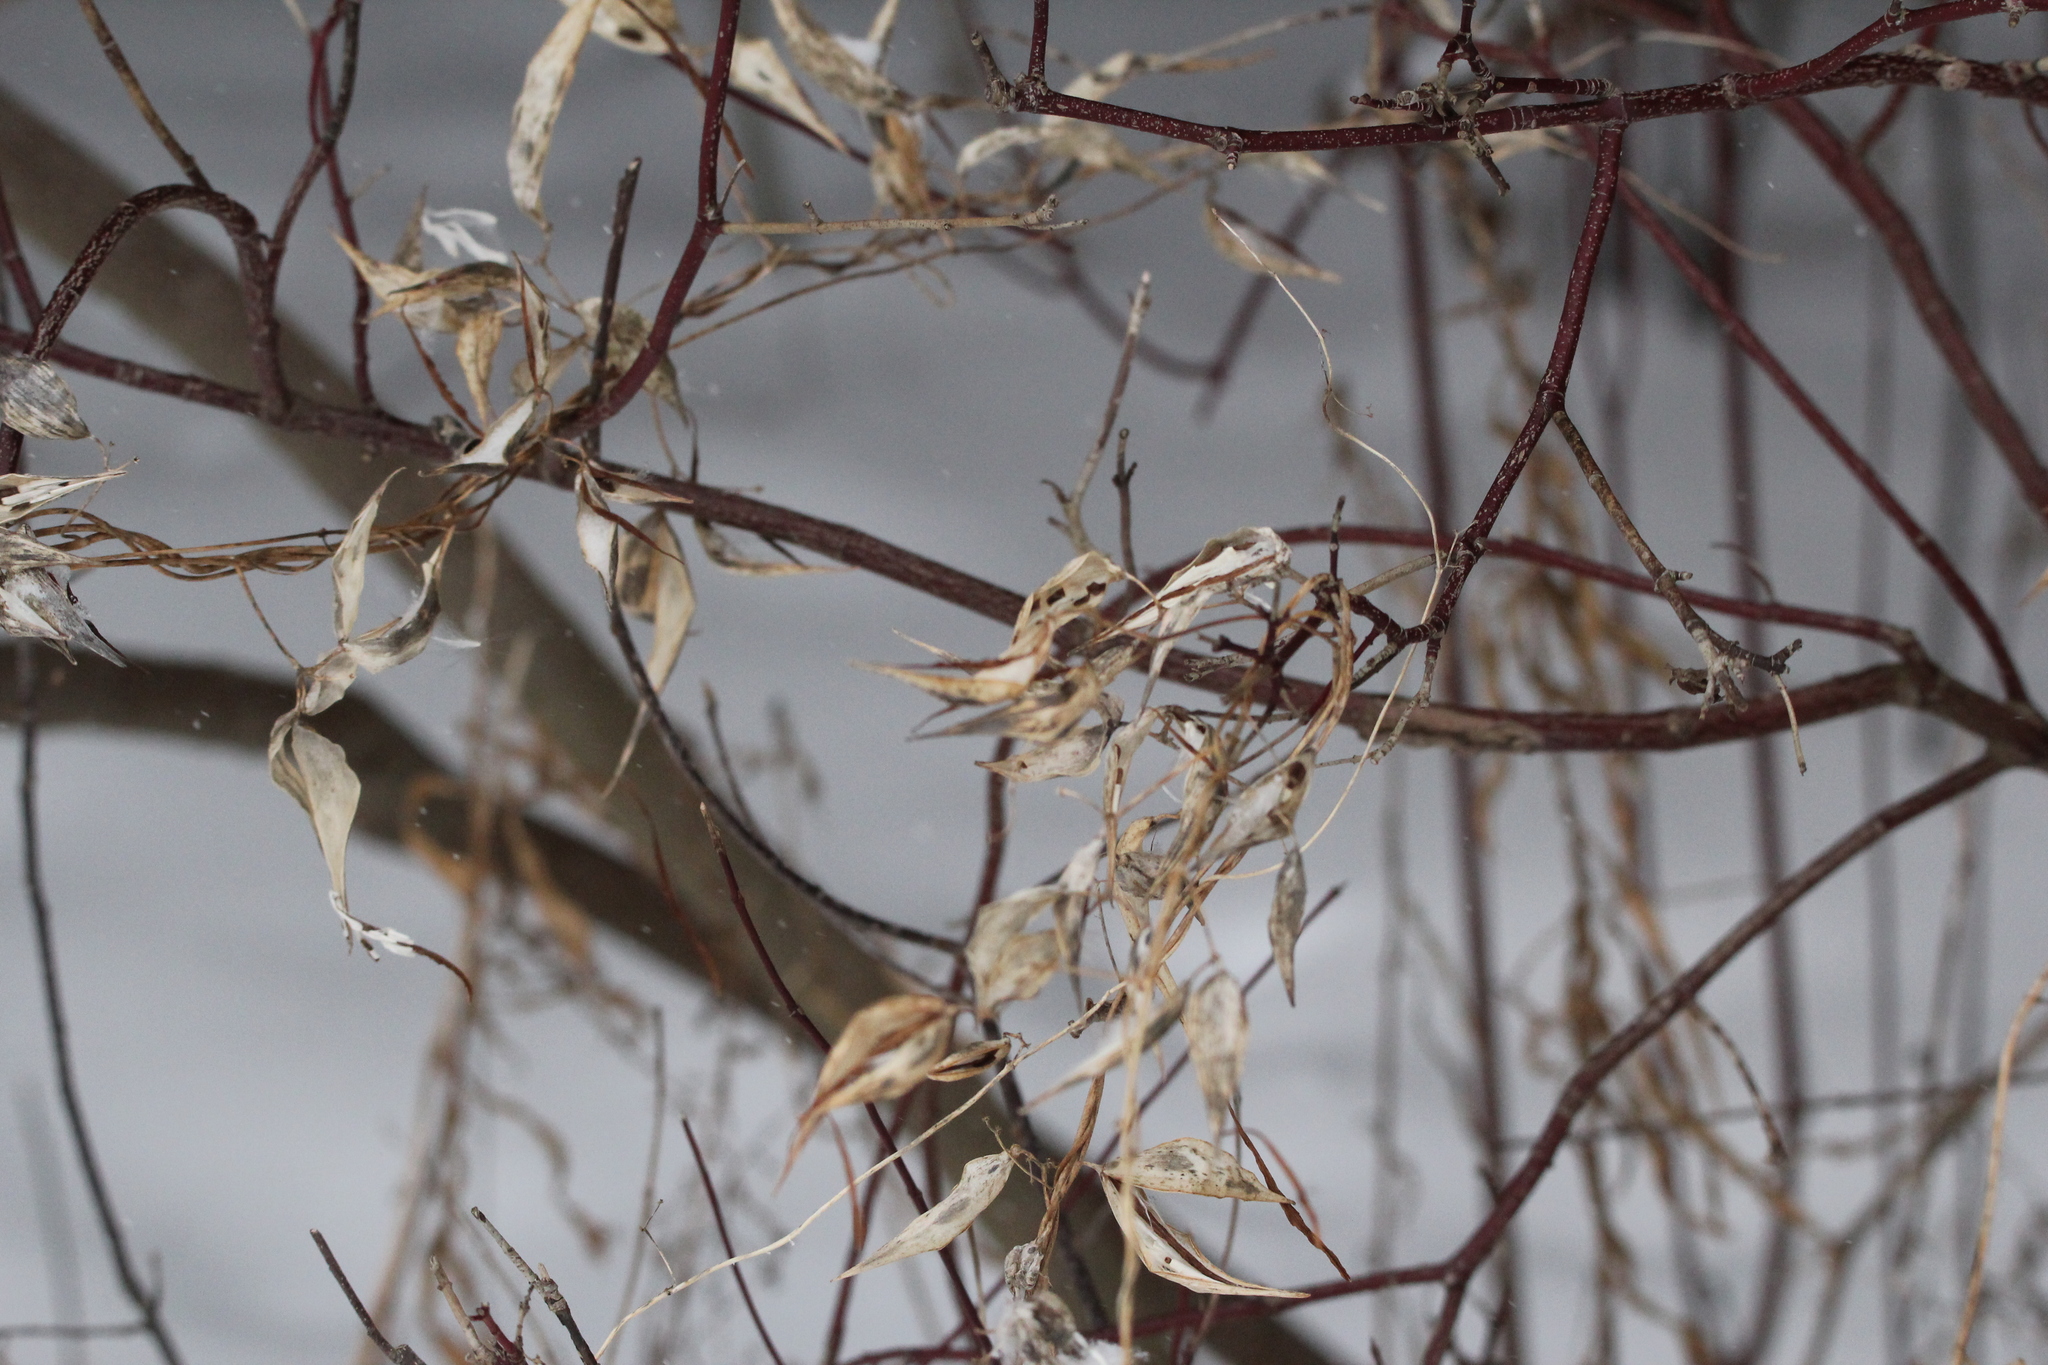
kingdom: Plantae
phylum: Tracheophyta
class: Magnoliopsida
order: Gentianales
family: Apocynaceae
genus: Vincetoxicum
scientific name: Vincetoxicum rossicum
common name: Dog-strangling vine
